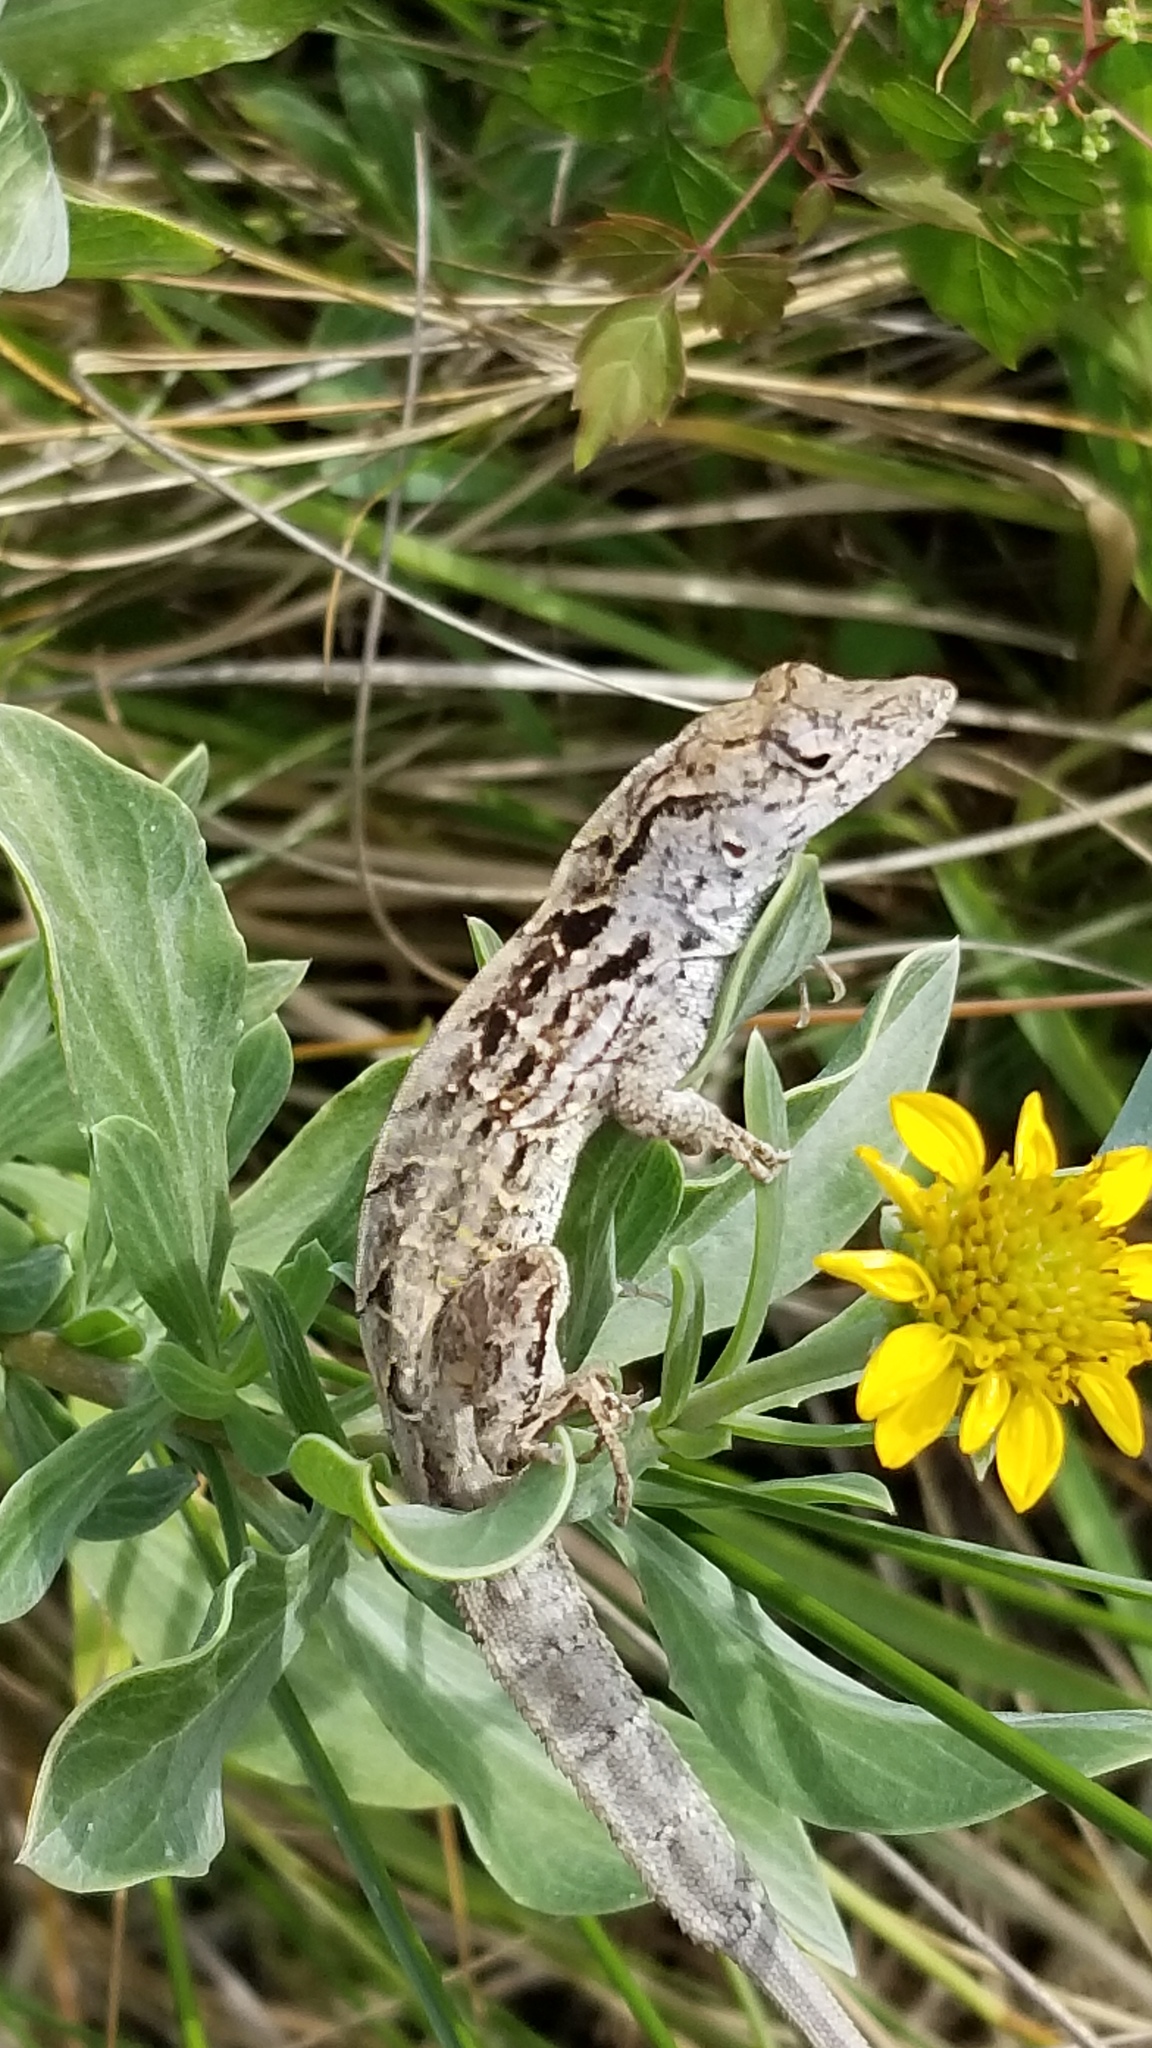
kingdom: Animalia
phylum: Chordata
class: Squamata
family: Dactyloidae
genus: Anolis
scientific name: Anolis sagrei
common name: Brown anole
